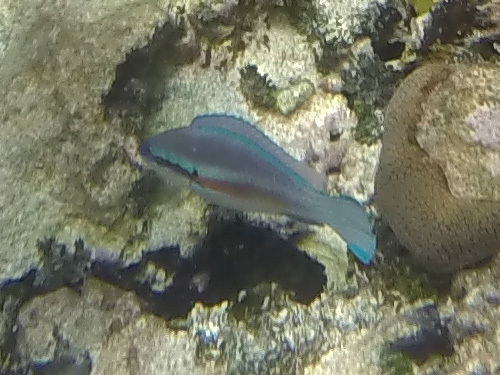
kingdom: Animalia
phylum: Chordata
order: Perciformes
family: Scaridae
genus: Scarus
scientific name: Scarus iseri
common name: Striped parrotfish
